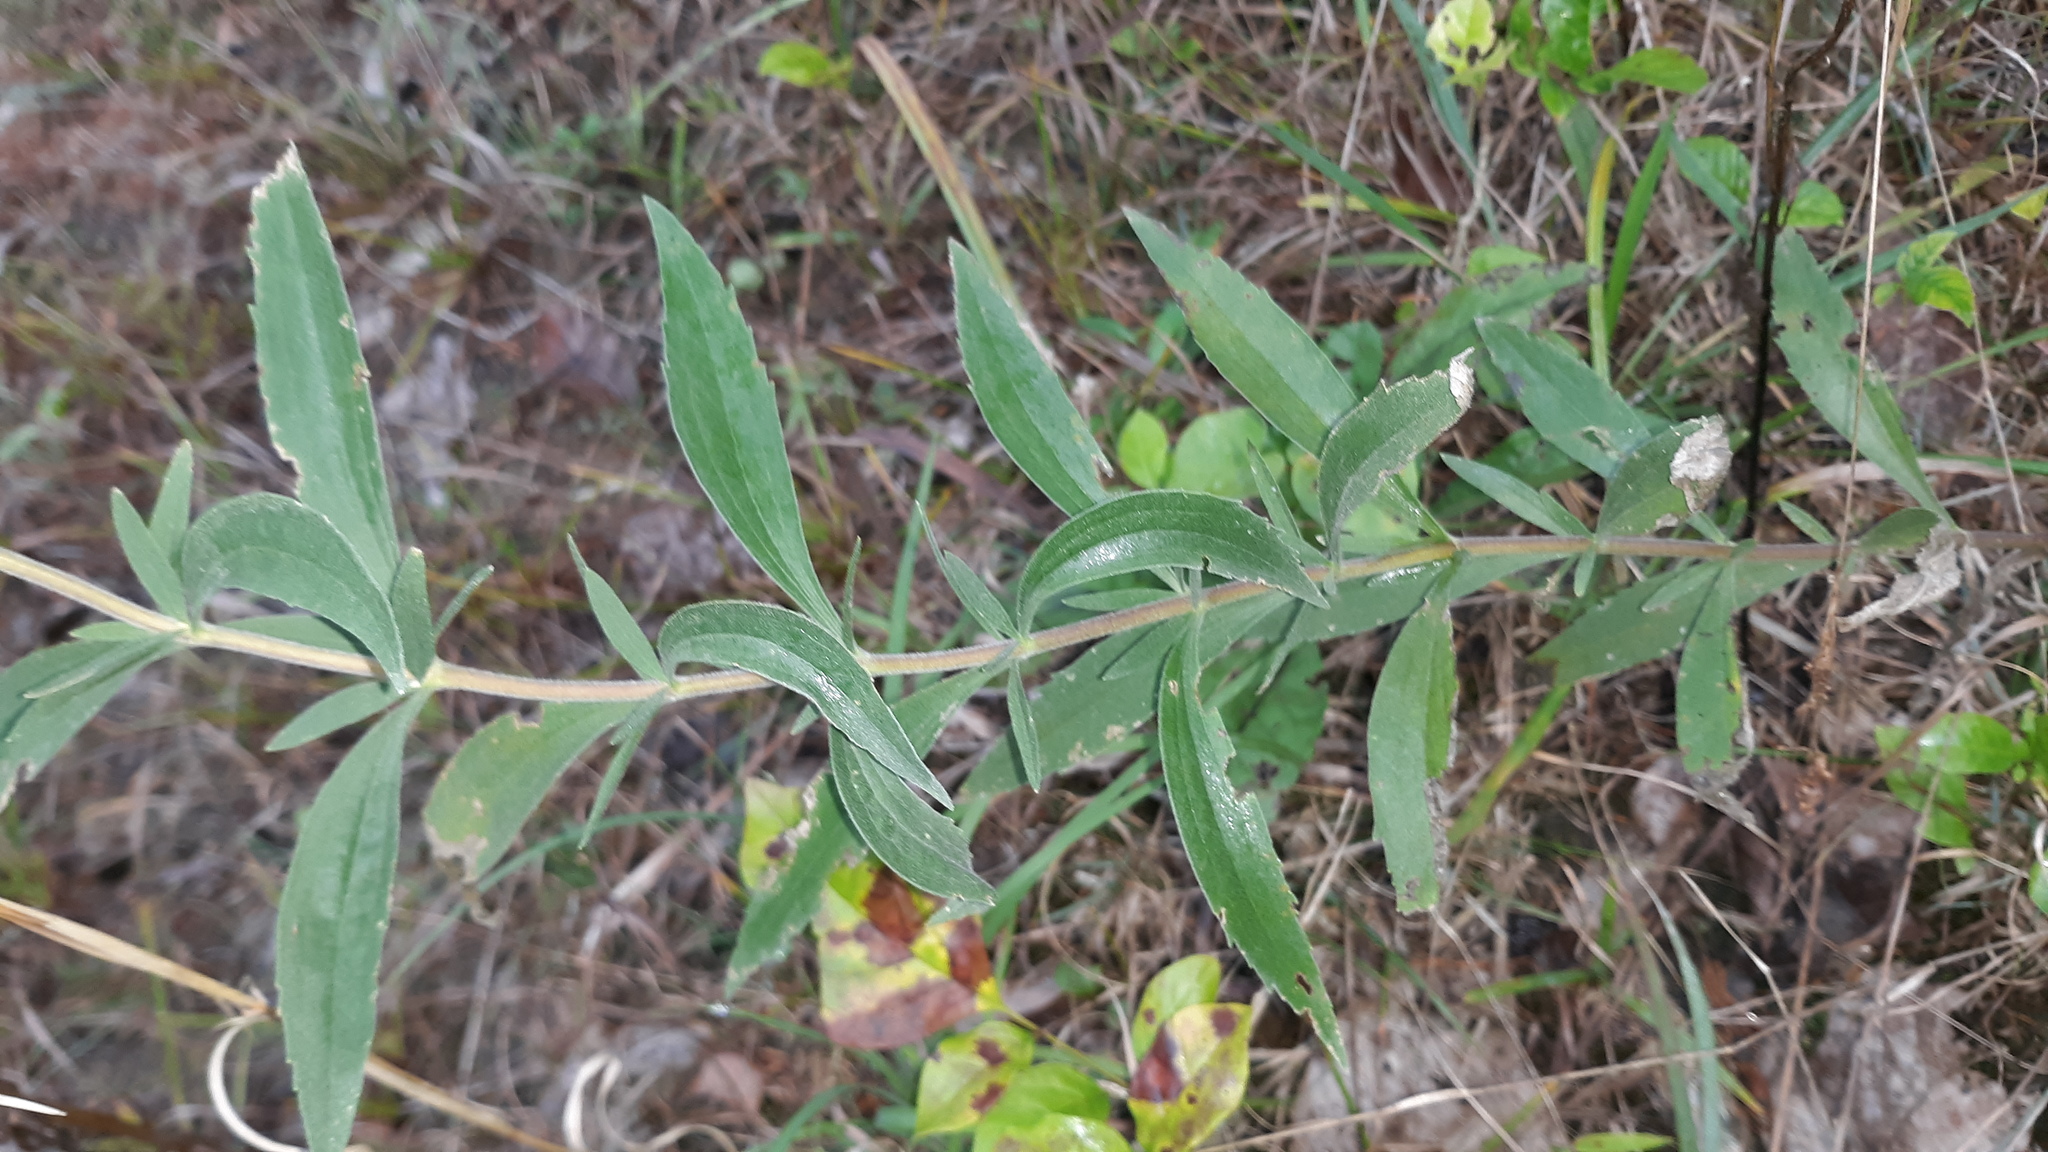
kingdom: Plantae
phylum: Tracheophyta
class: Magnoliopsida
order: Asterales
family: Asteraceae
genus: Eupatorium
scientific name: Eupatorium altissimum
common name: Tall thoroughwort
